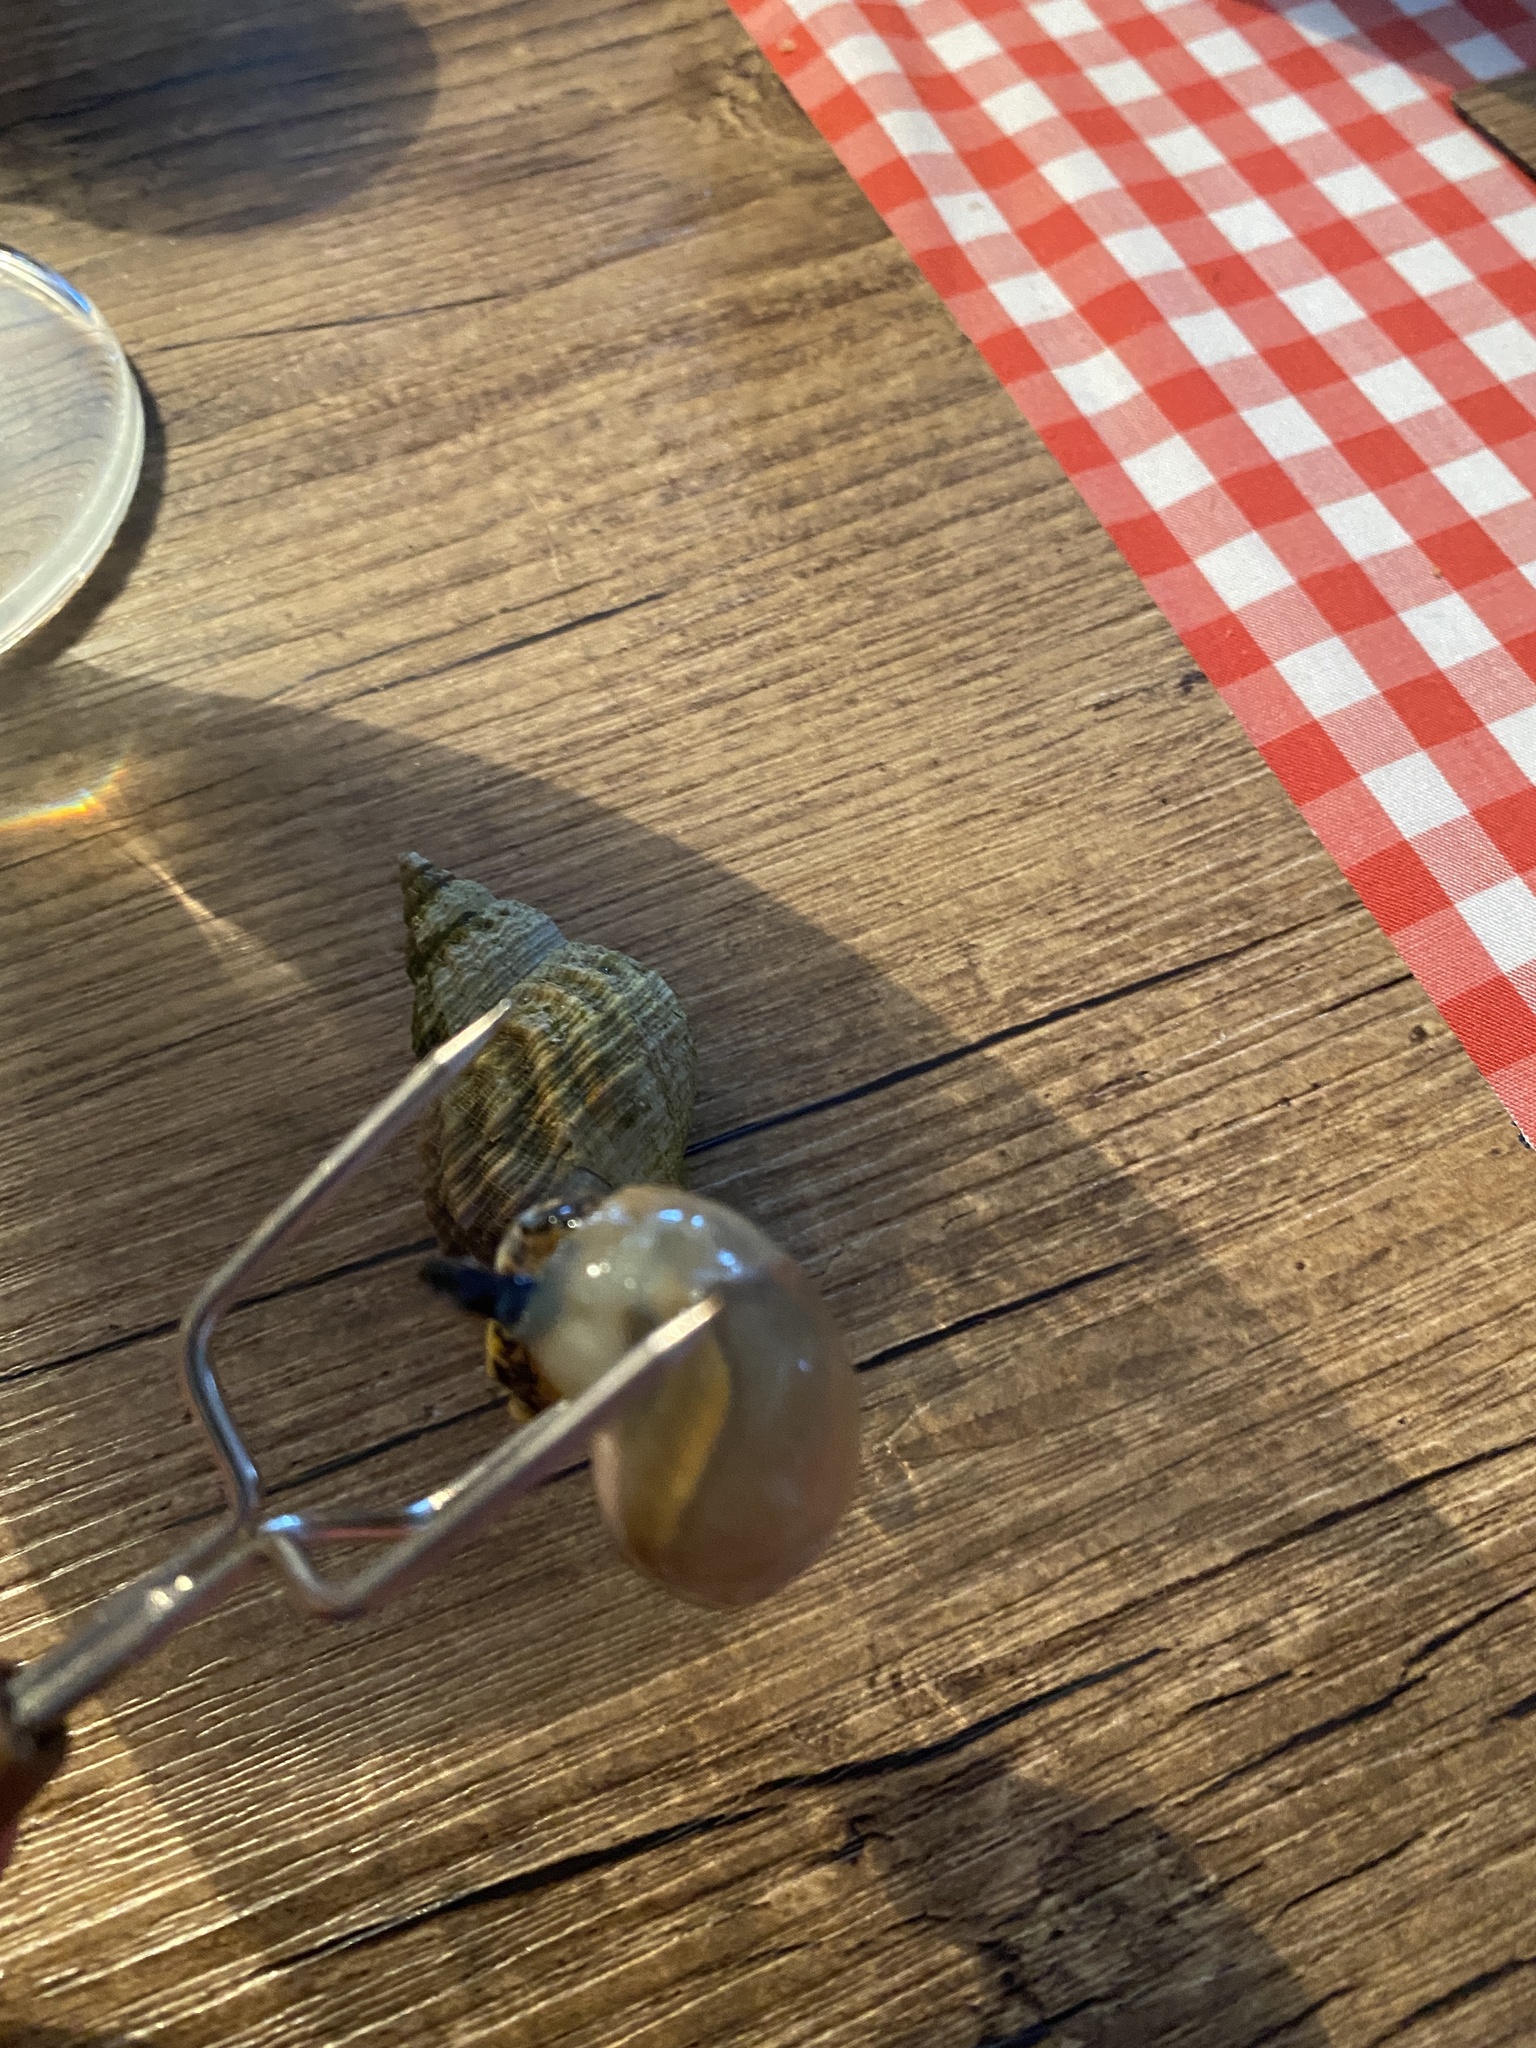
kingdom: Animalia
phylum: Mollusca
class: Gastropoda
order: Neogastropoda
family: Buccinidae
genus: Buccinum
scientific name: Buccinum undatum
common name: Common whelk
